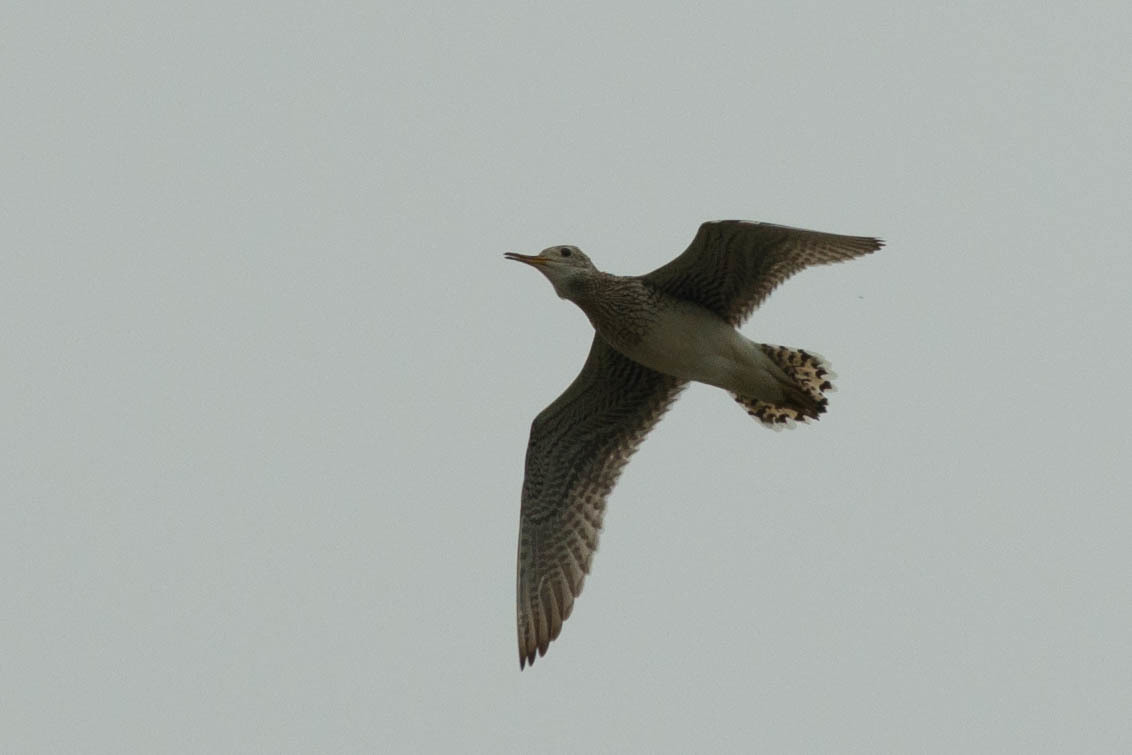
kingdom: Animalia
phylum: Chordata
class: Aves
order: Charadriiformes
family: Scolopacidae
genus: Bartramia
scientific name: Bartramia longicauda
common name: Upland sandpiper
